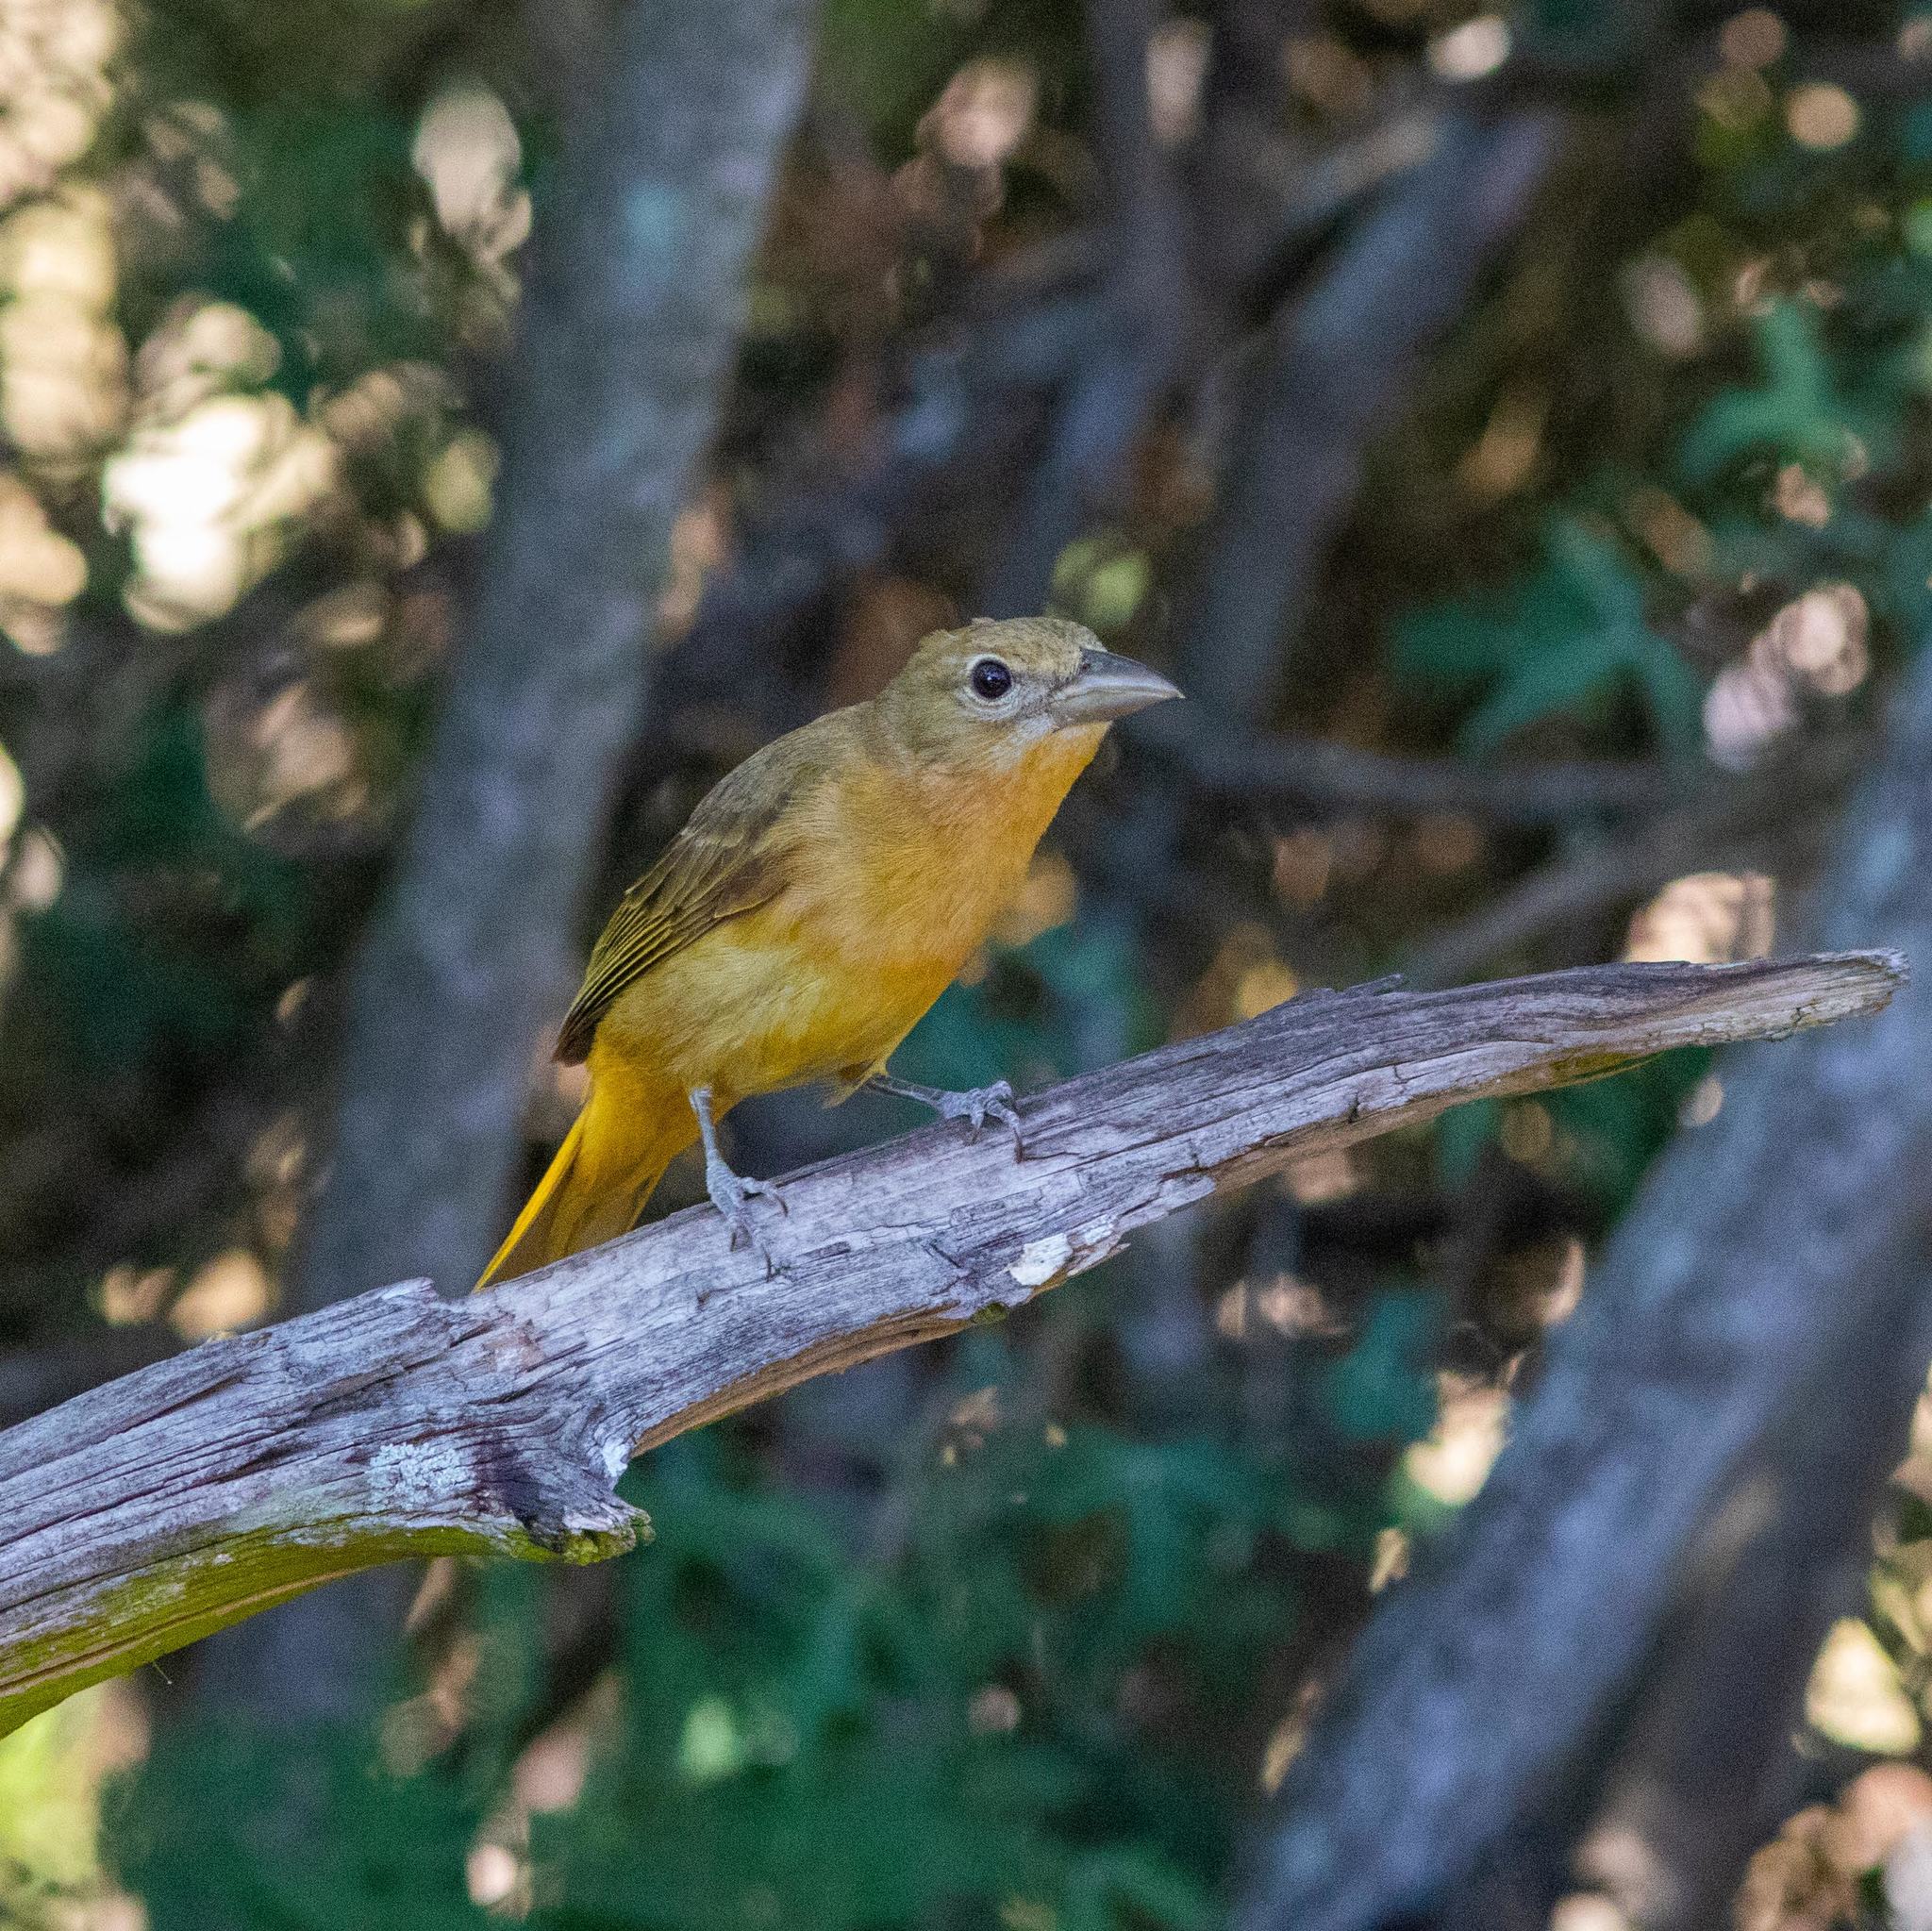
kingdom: Animalia
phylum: Chordata
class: Aves
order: Passeriformes
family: Cardinalidae
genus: Piranga
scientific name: Piranga rubra
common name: Summer tanager
